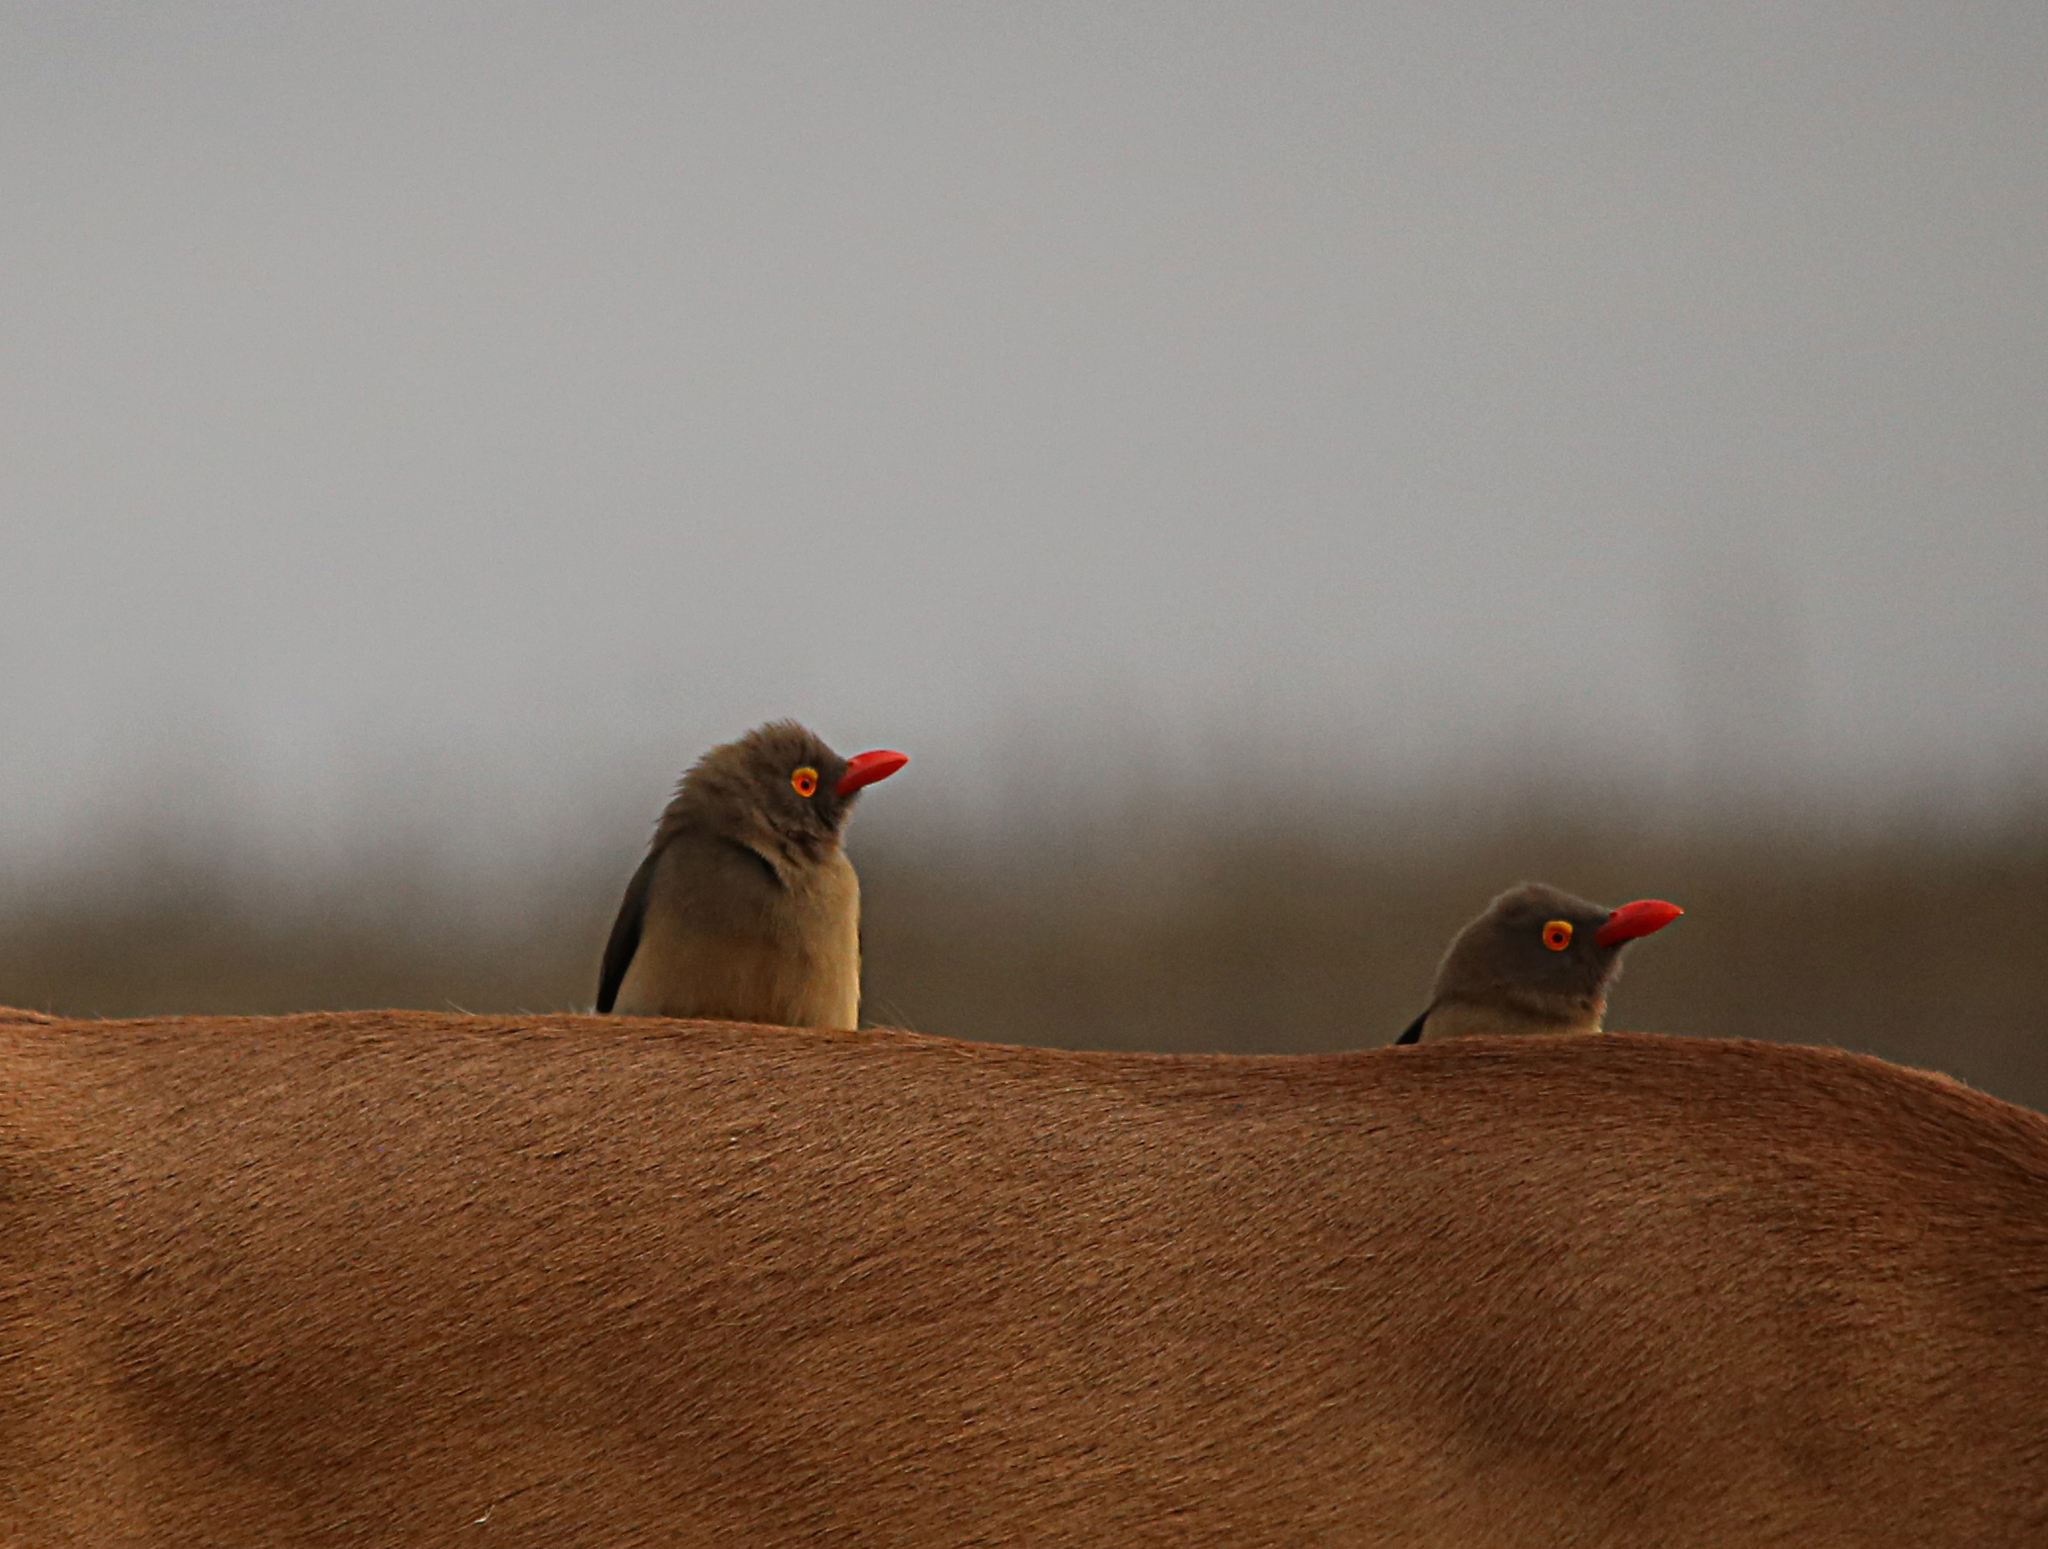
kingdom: Animalia
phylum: Chordata
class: Aves
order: Passeriformes
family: Buphagidae
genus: Buphagus
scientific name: Buphagus erythrorhynchus
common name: Red-billed oxpecker
